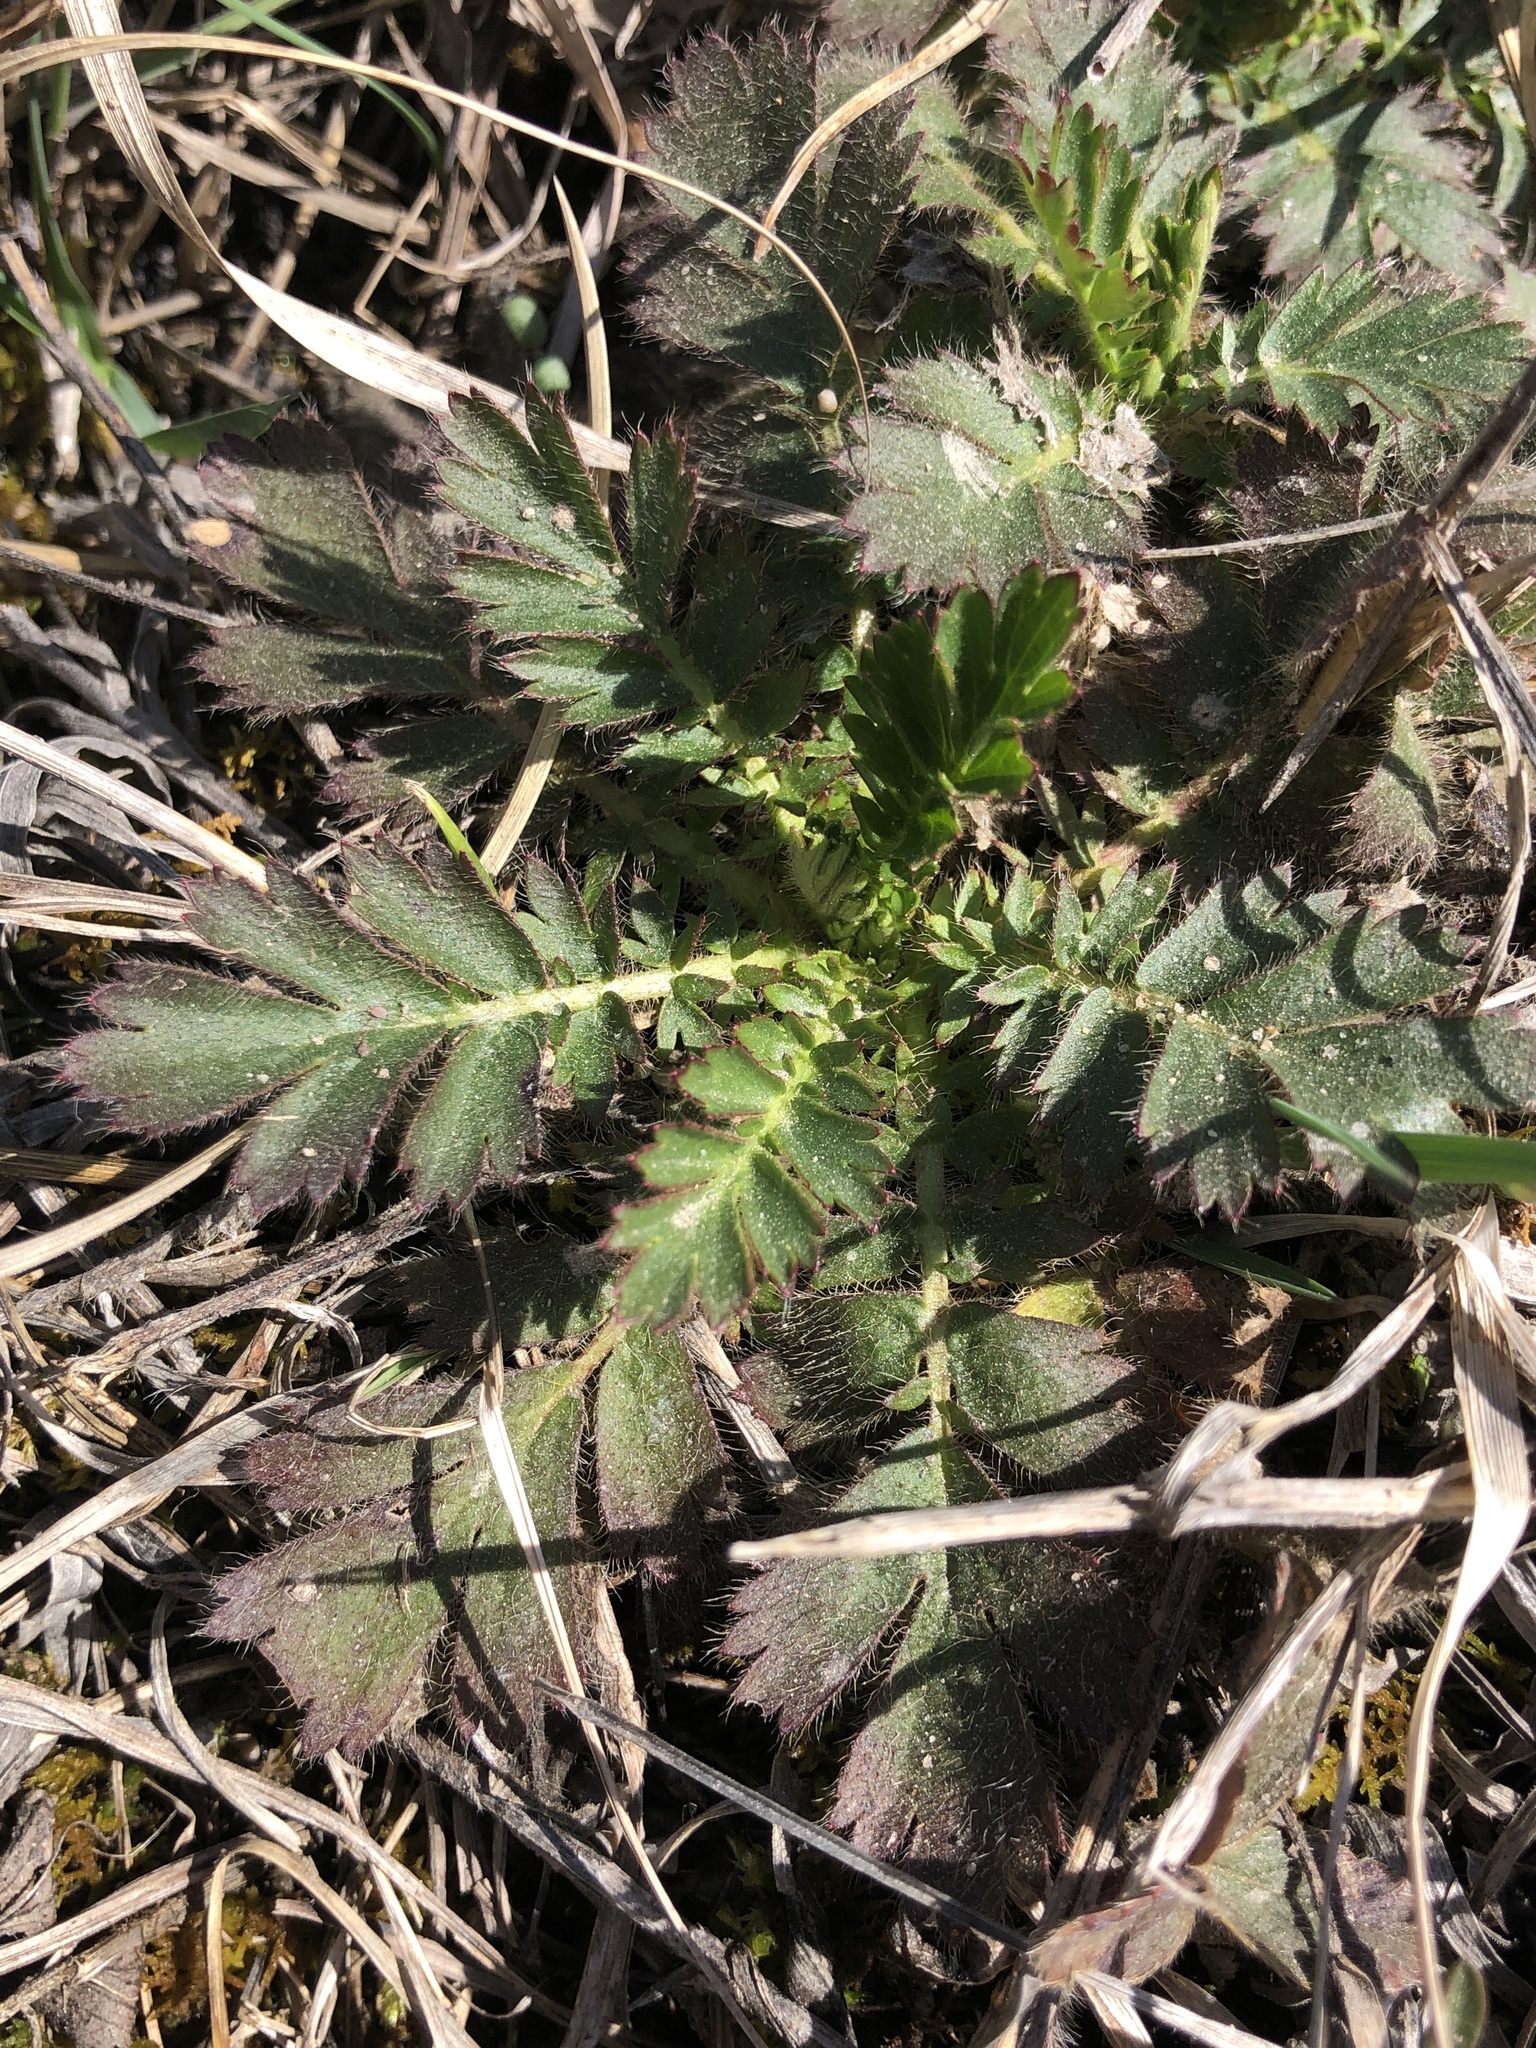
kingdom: Plantae
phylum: Tracheophyta
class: Magnoliopsida
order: Rosales
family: Rosaceae
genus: Geum
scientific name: Geum triflorum
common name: Old man's whiskers
